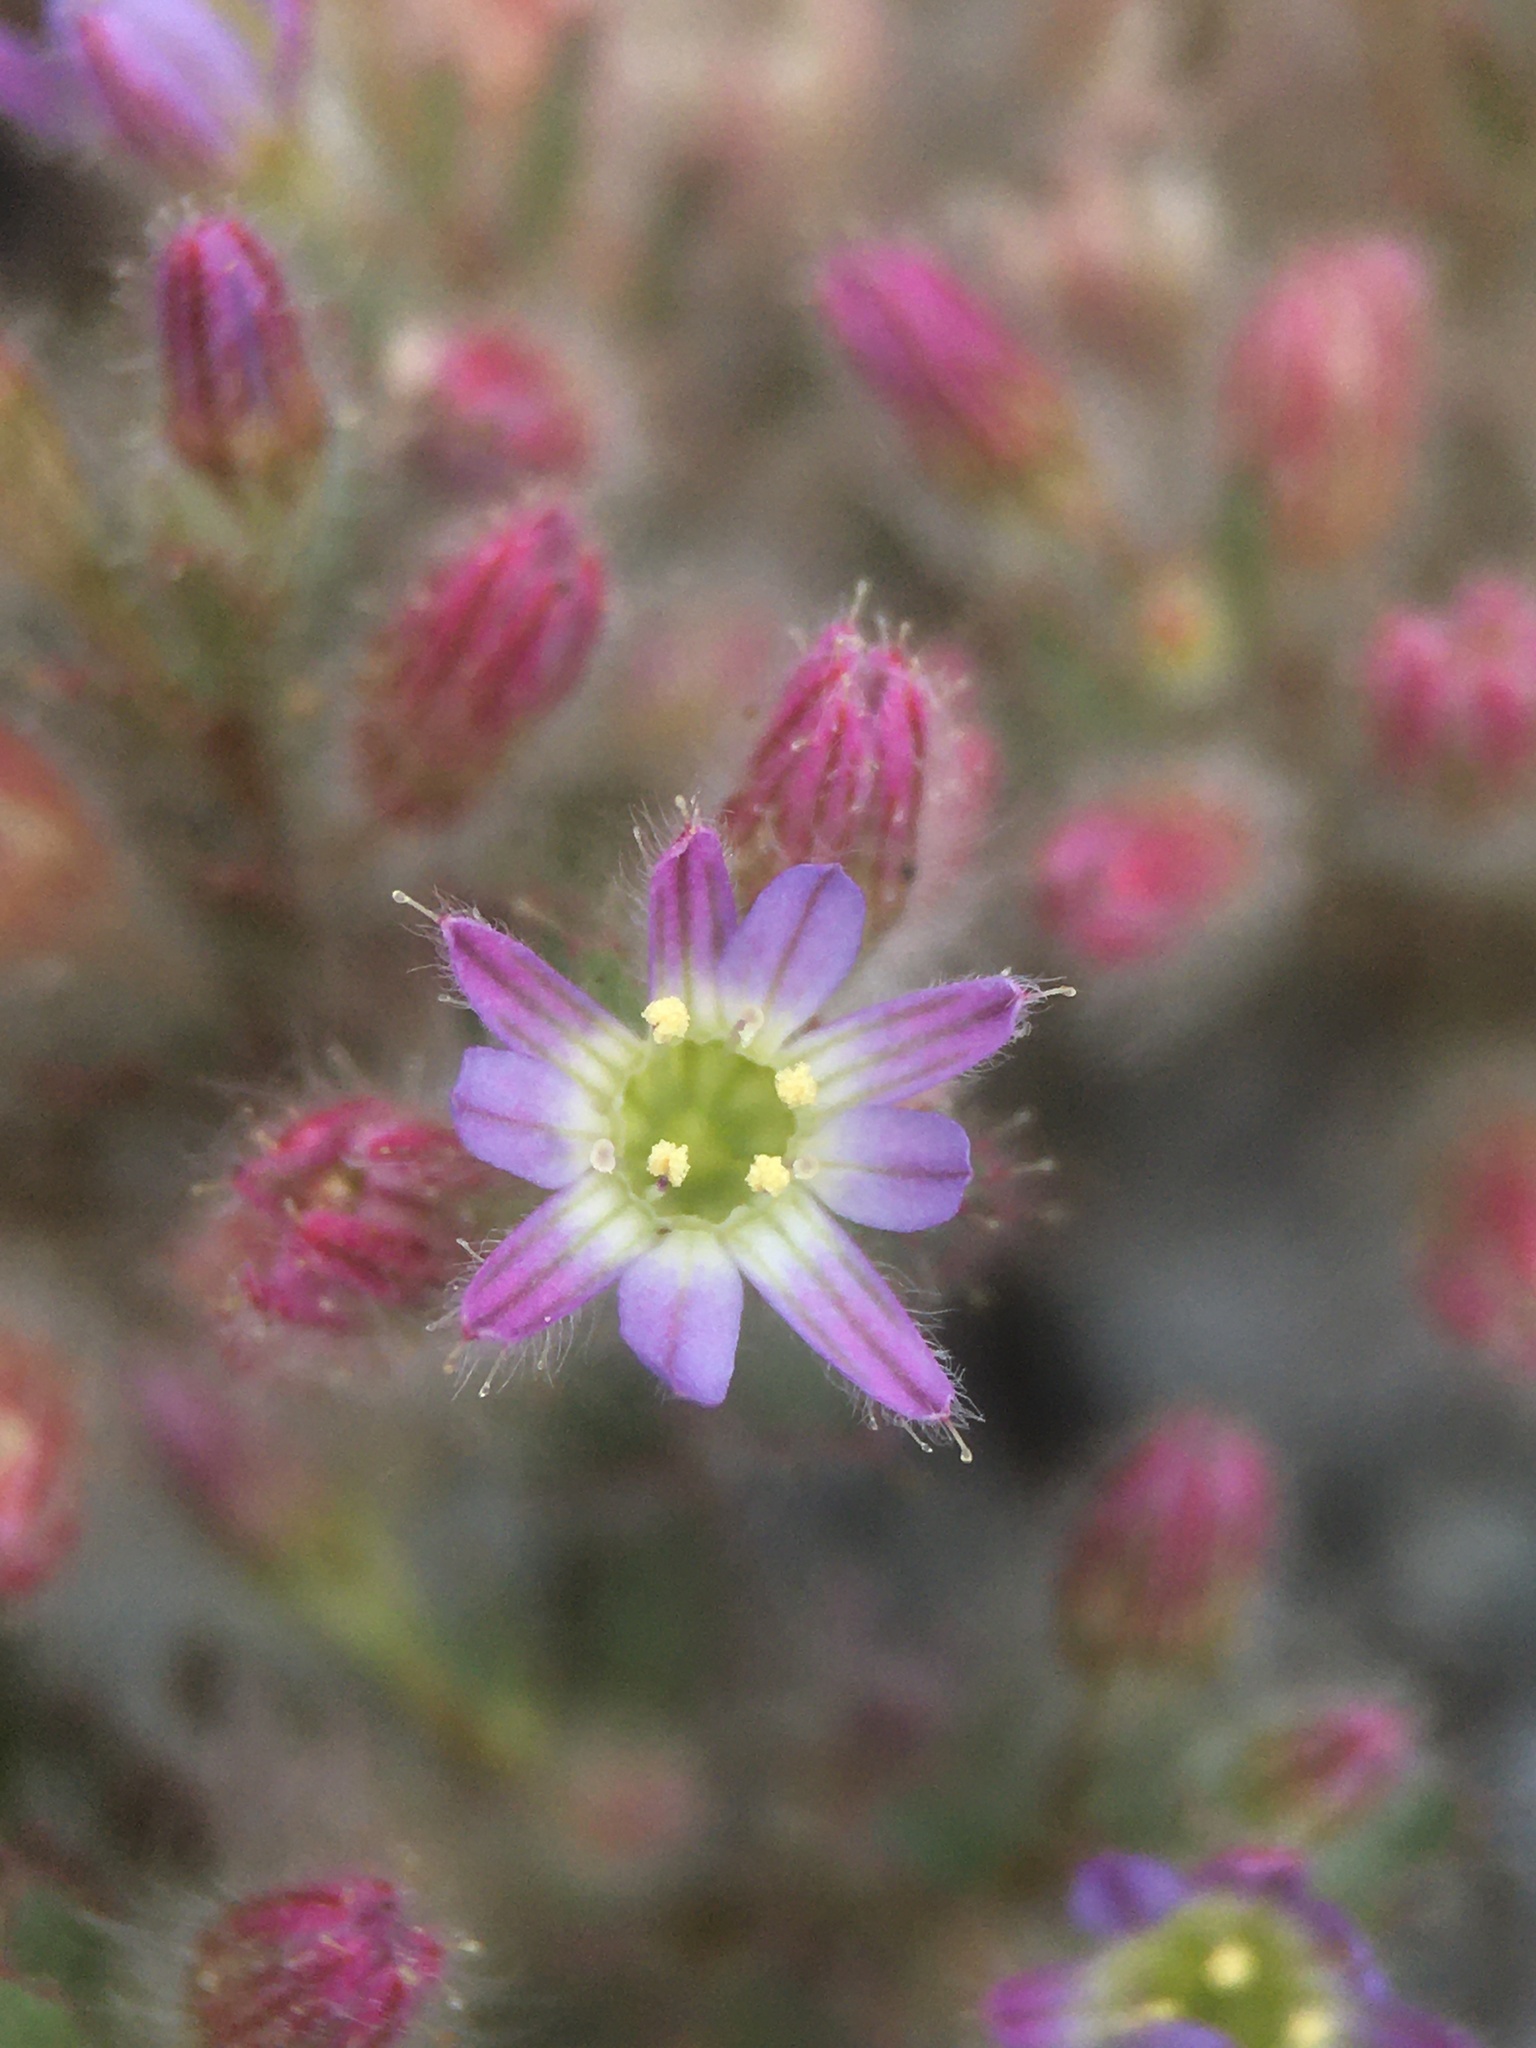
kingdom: Plantae
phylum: Tracheophyta
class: Magnoliopsida
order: Malpighiales
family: Malesherbiaceae
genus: Malesherbia
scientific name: Malesherbia humilis
